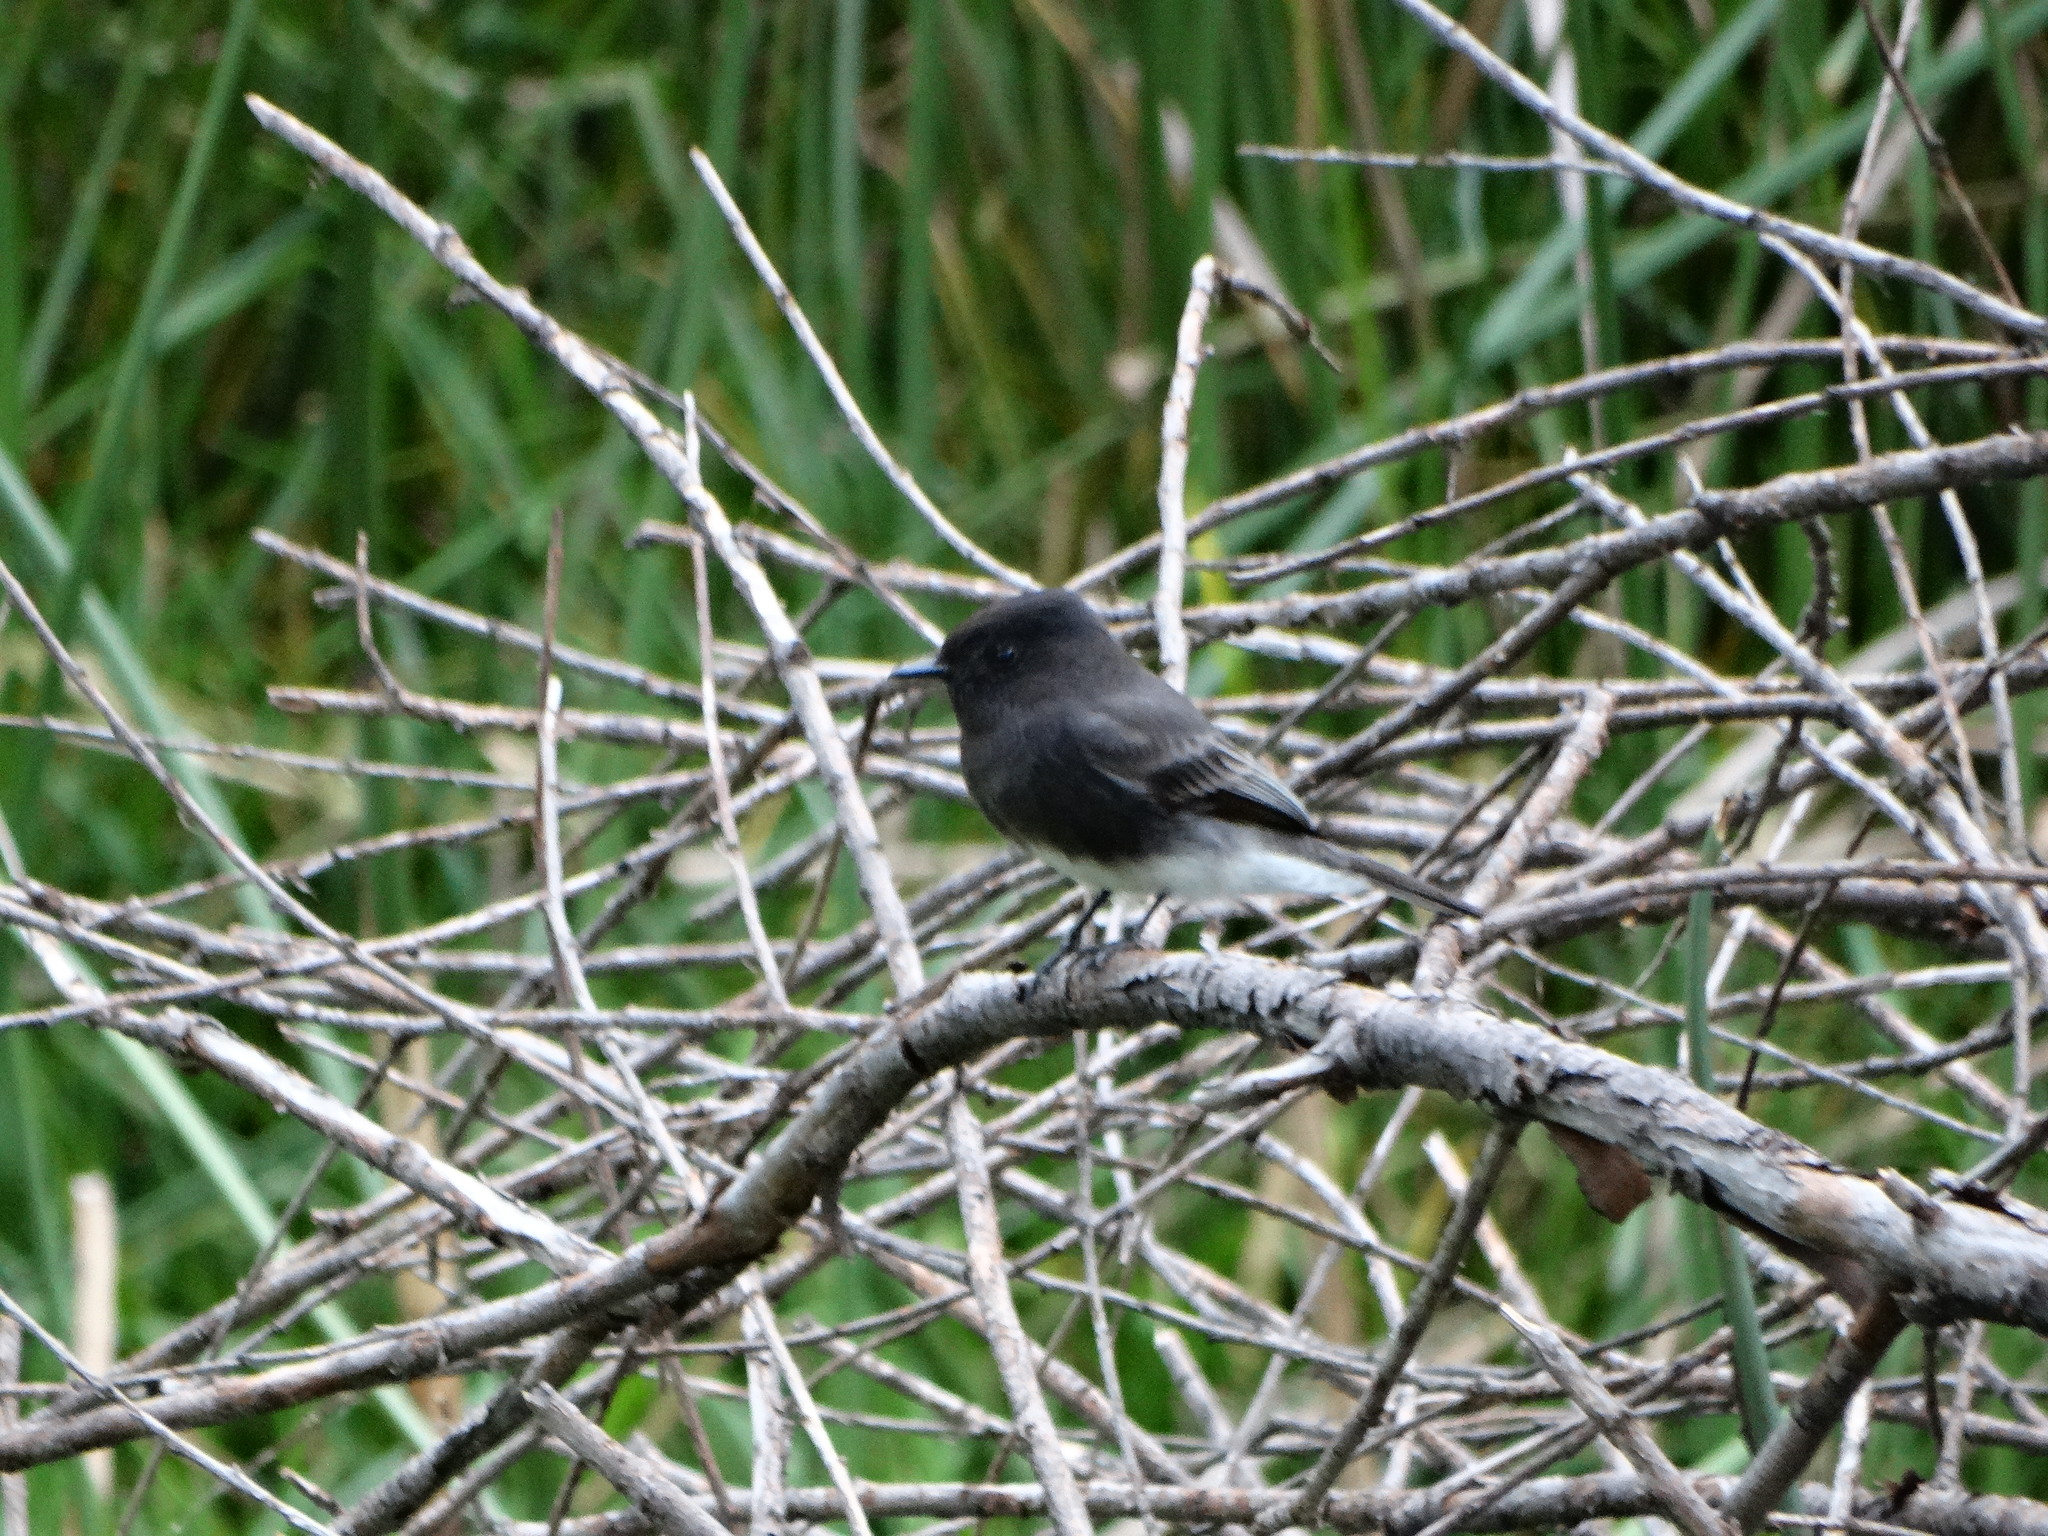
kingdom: Animalia
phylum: Chordata
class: Aves
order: Passeriformes
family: Tyrannidae
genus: Sayornis
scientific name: Sayornis nigricans
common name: Black phoebe
